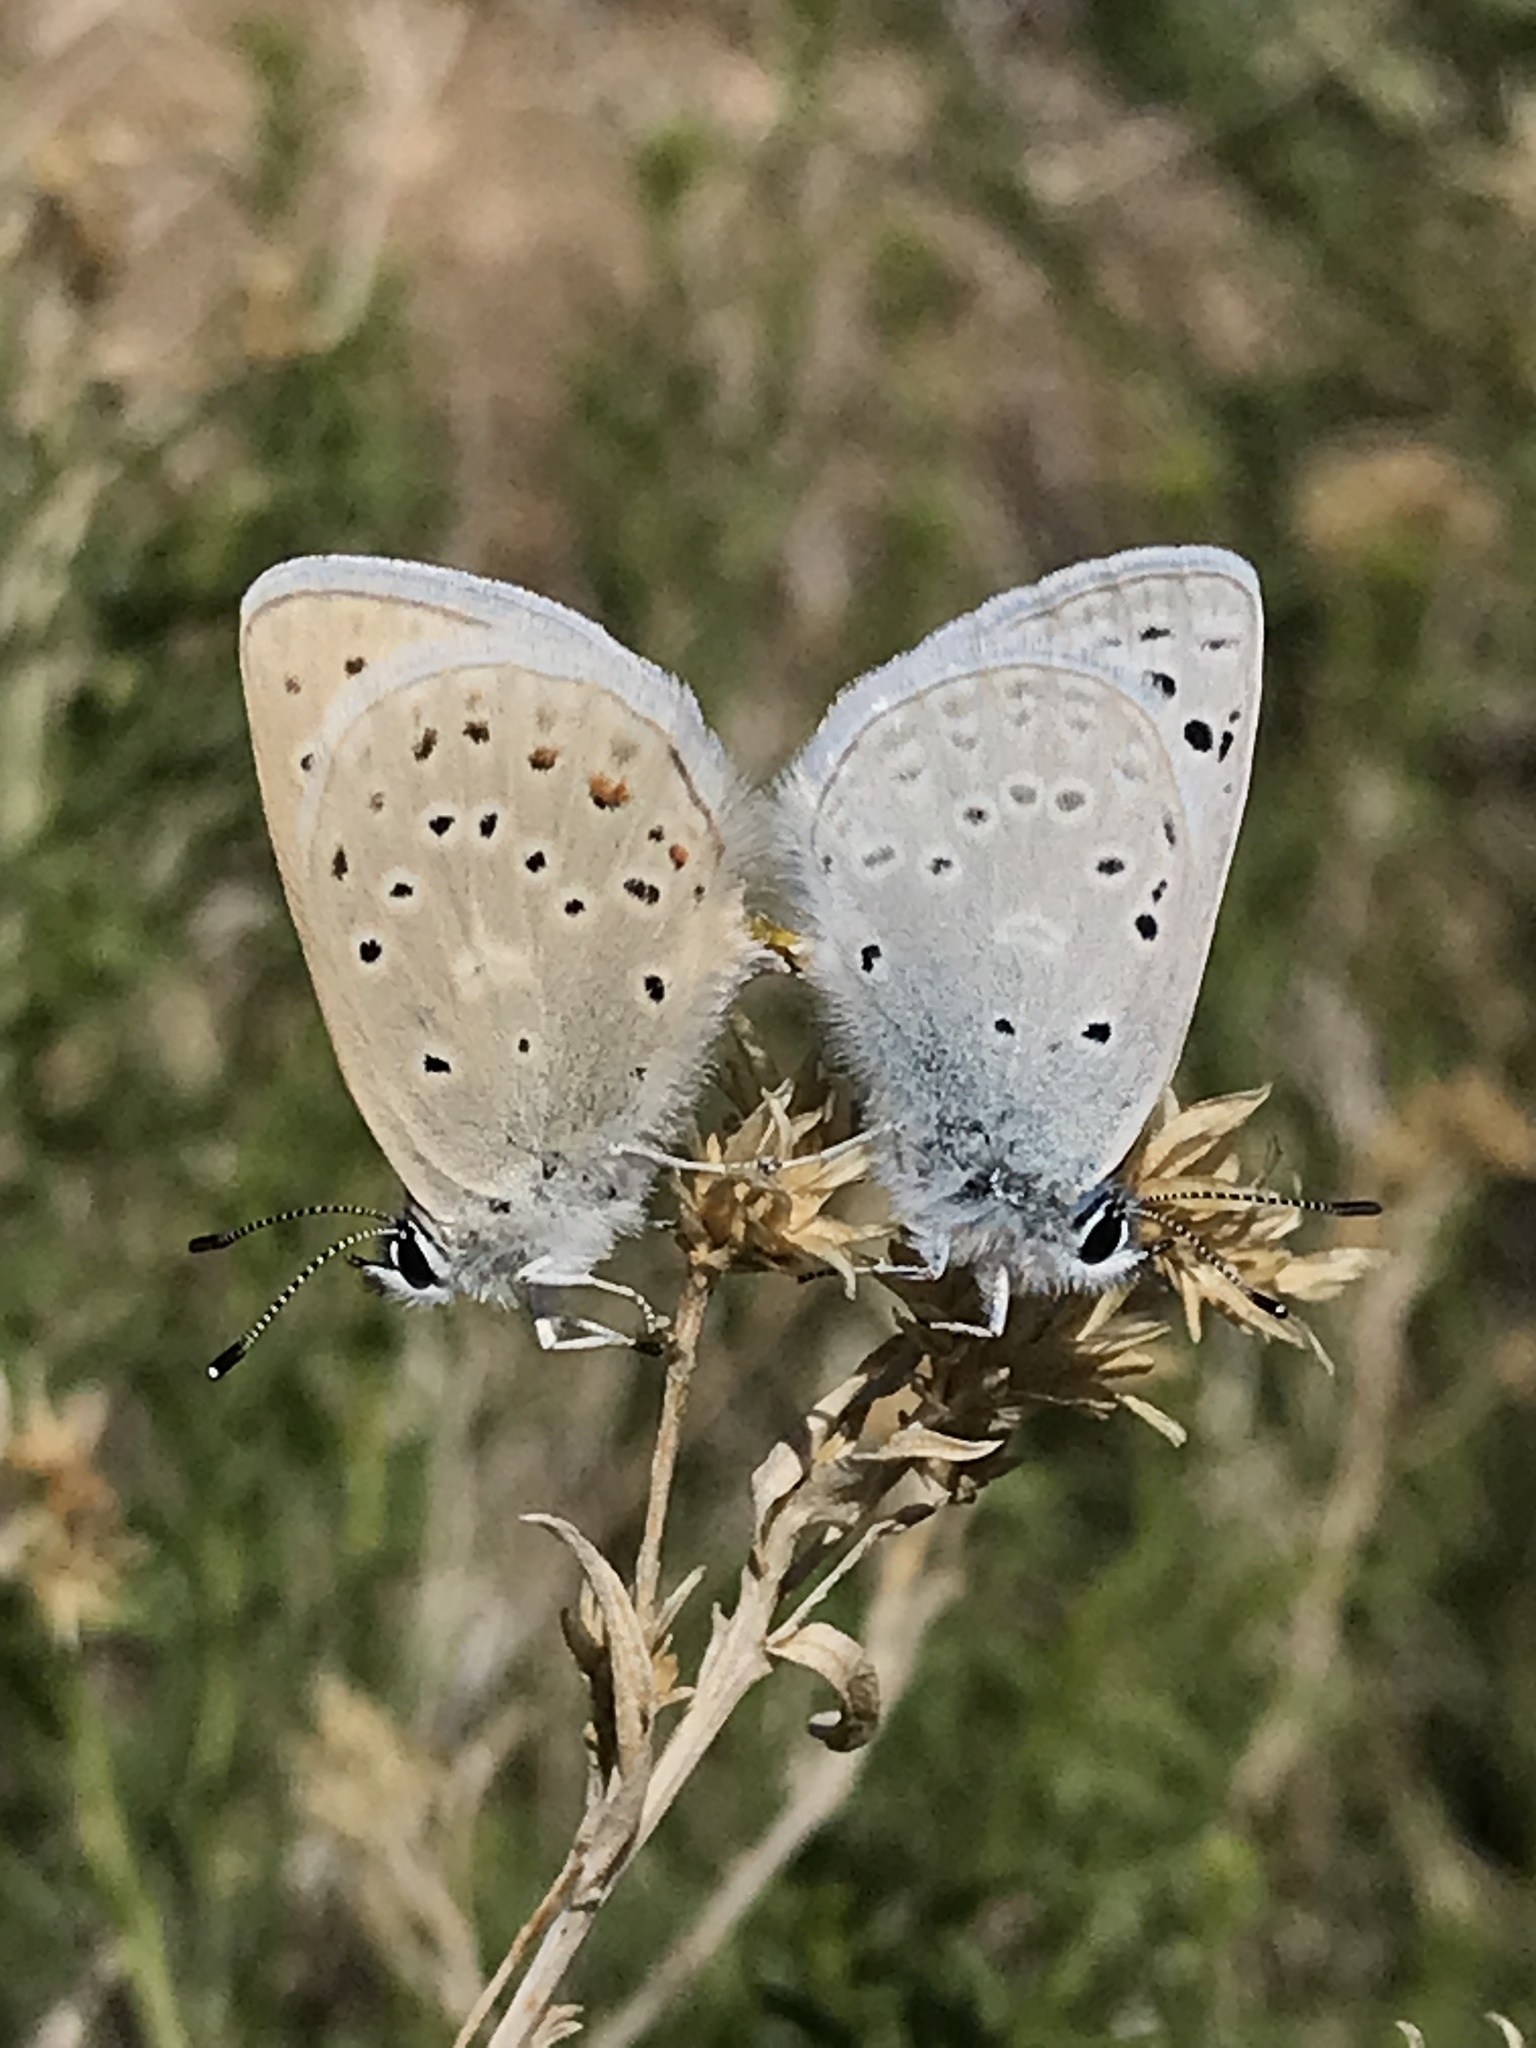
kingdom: Animalia
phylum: Arthropoda
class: Insecta
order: Lepidoptera
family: Lycaenidae
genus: Icaricia
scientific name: Icaricia icarioides
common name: Boisduval's blue
